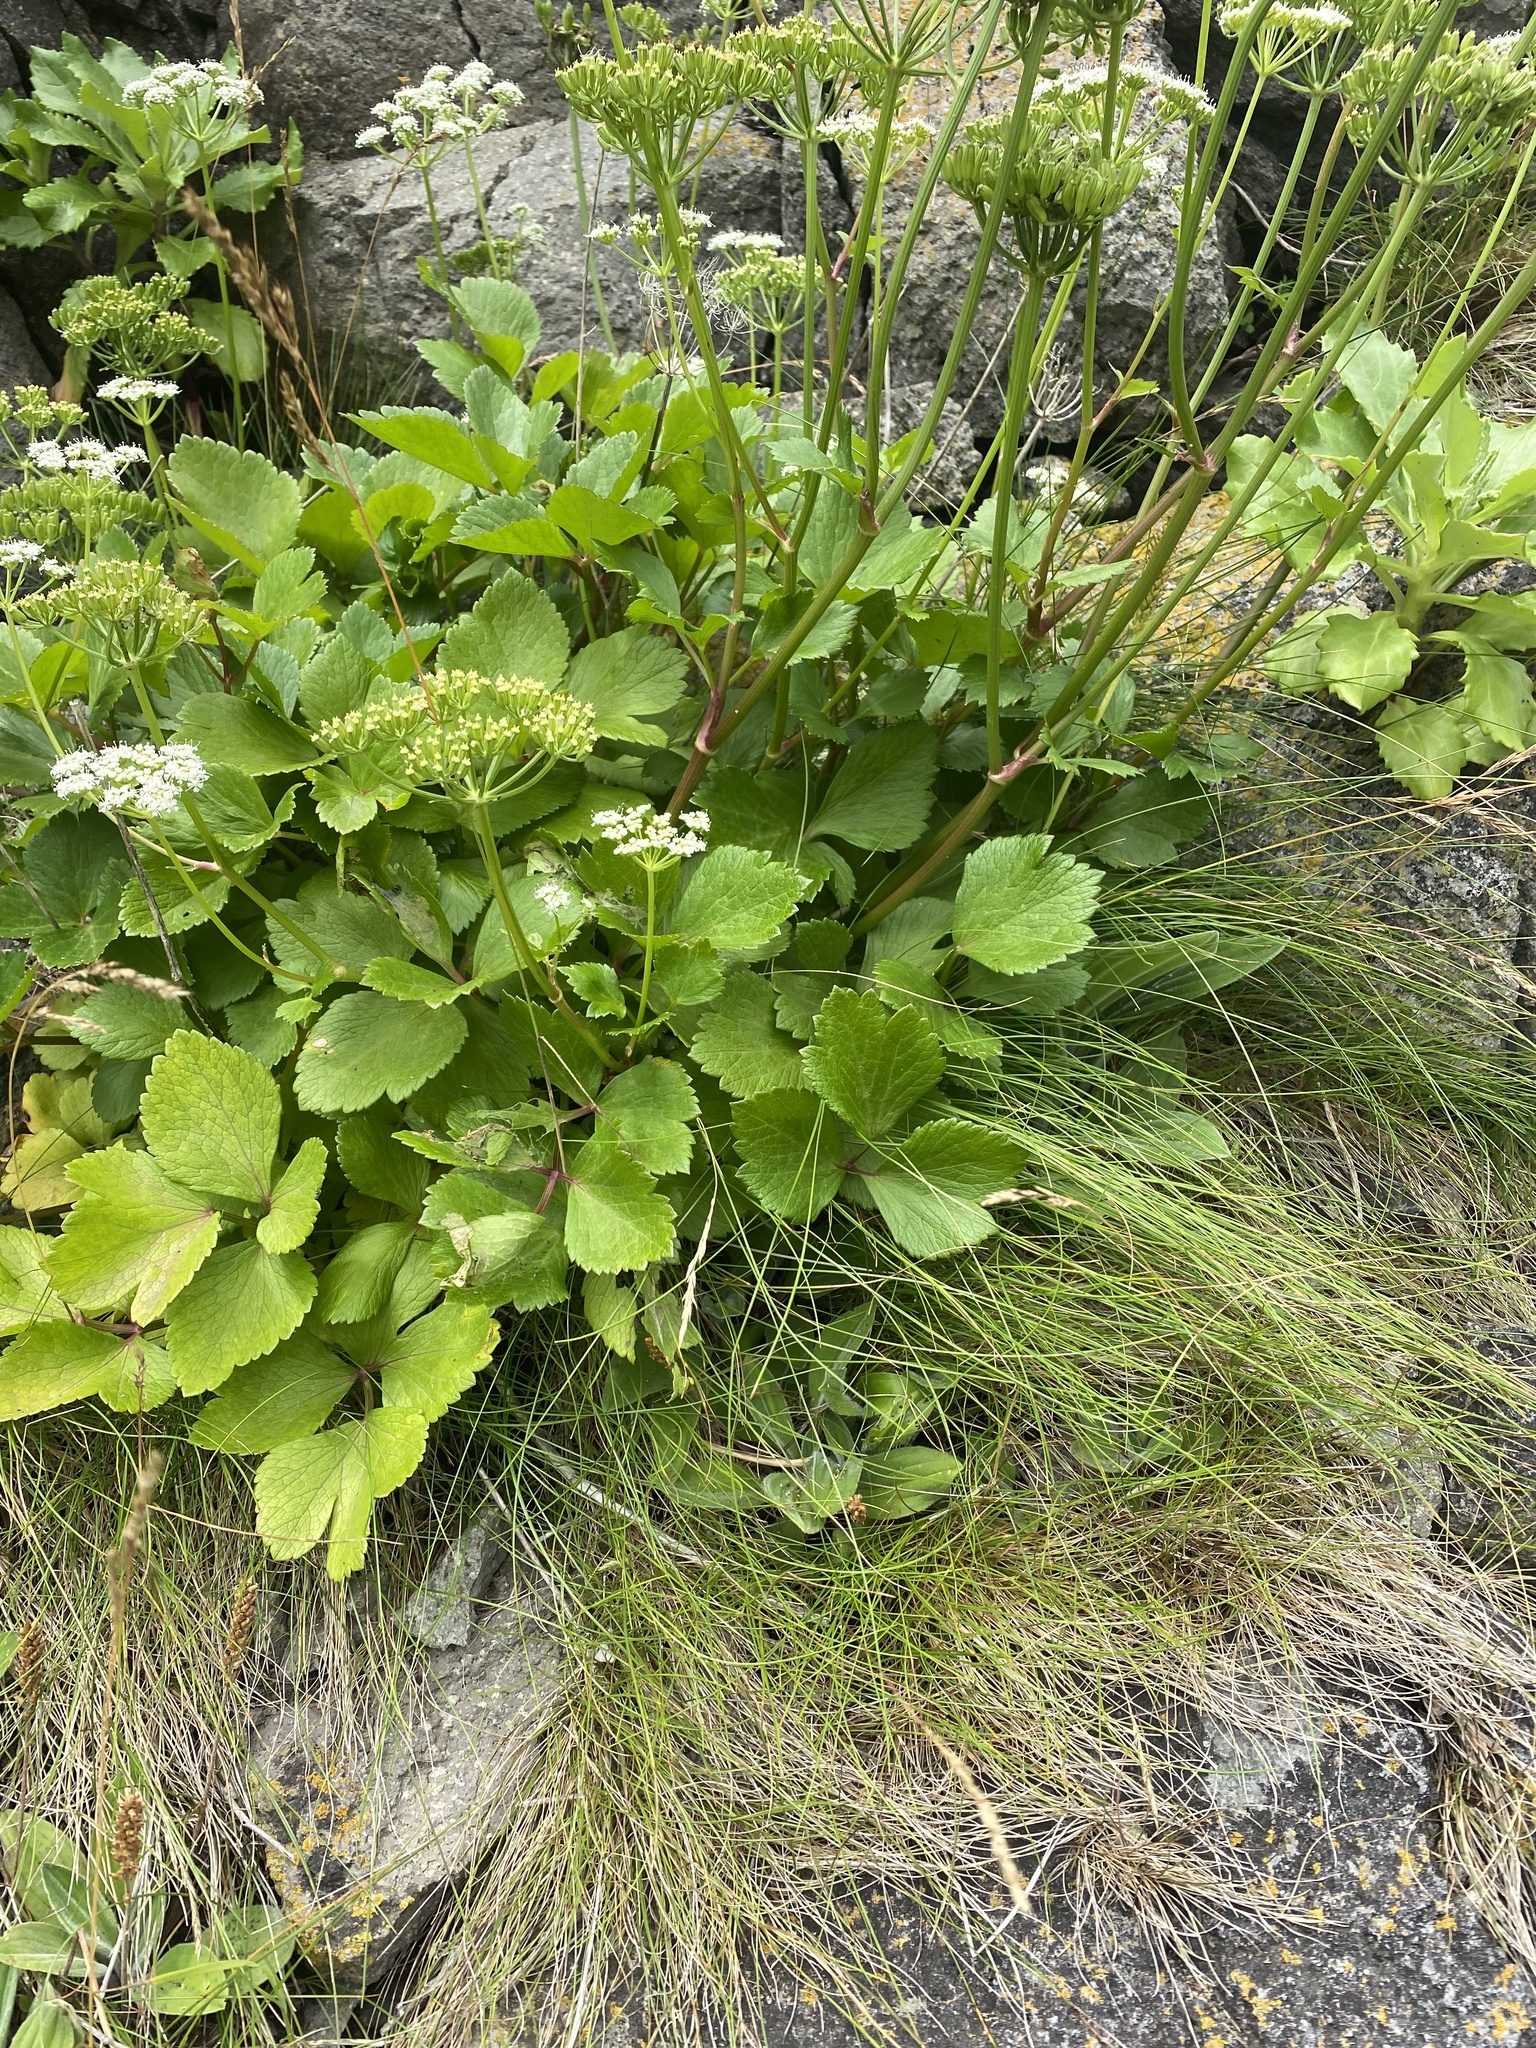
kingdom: Plantae
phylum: Tracheophyta
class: Magnoliopsida
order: Apiales
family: Apiaceae
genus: Ligusticum
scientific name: Ligusticum scothicum
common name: Beach lovage
